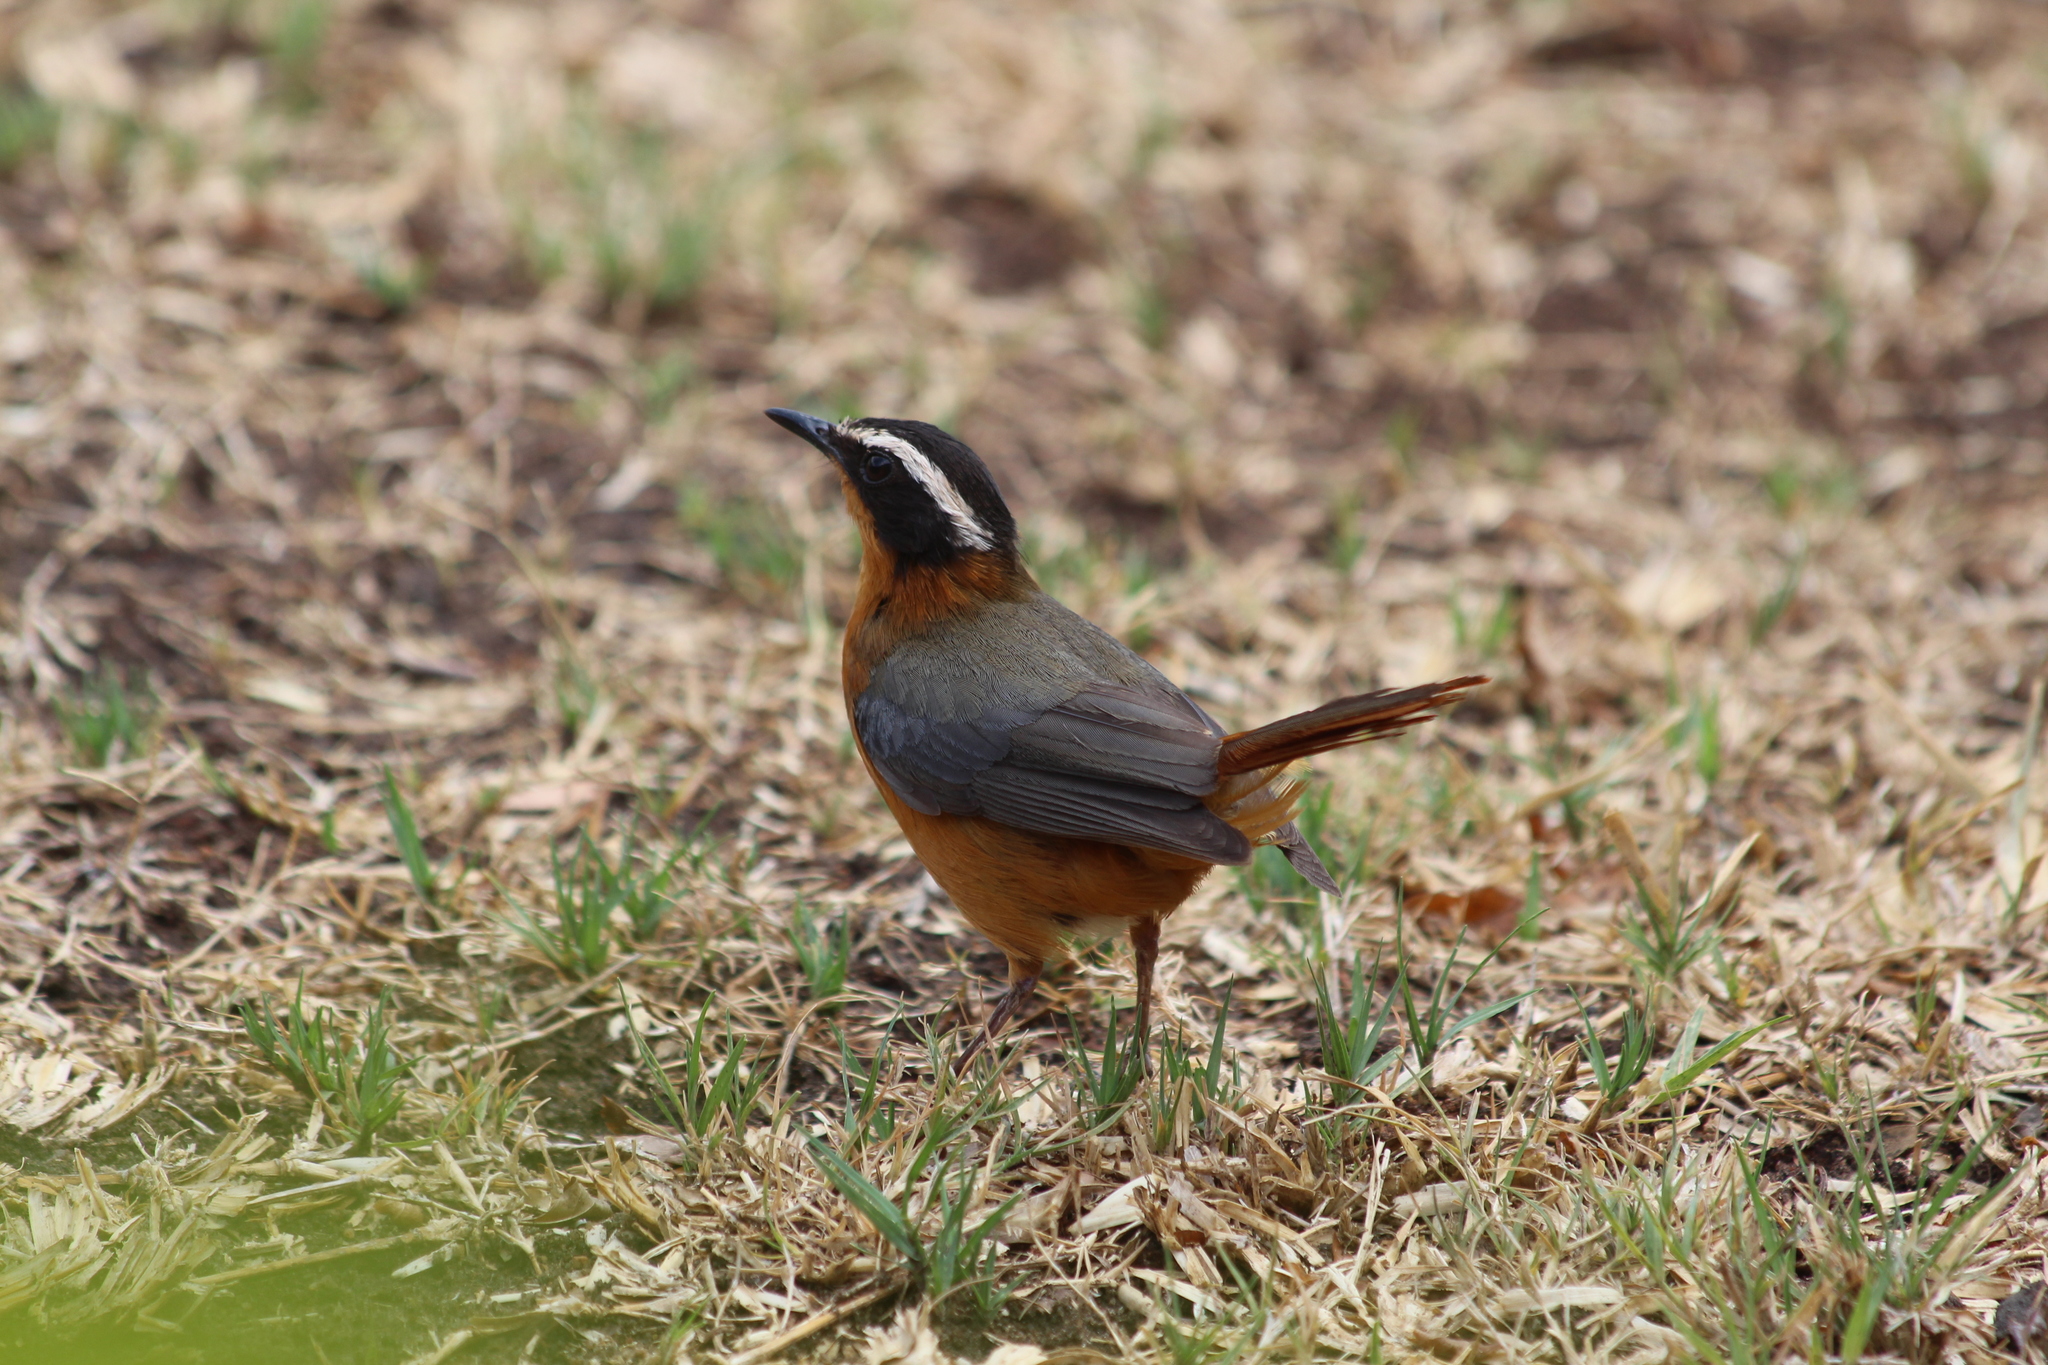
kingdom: Animalia
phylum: Chordata
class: Aves
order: Passeriformes
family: Muscicapidae
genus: Cossypha
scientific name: Cossypha heuglini
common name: White-browed robin-chat
